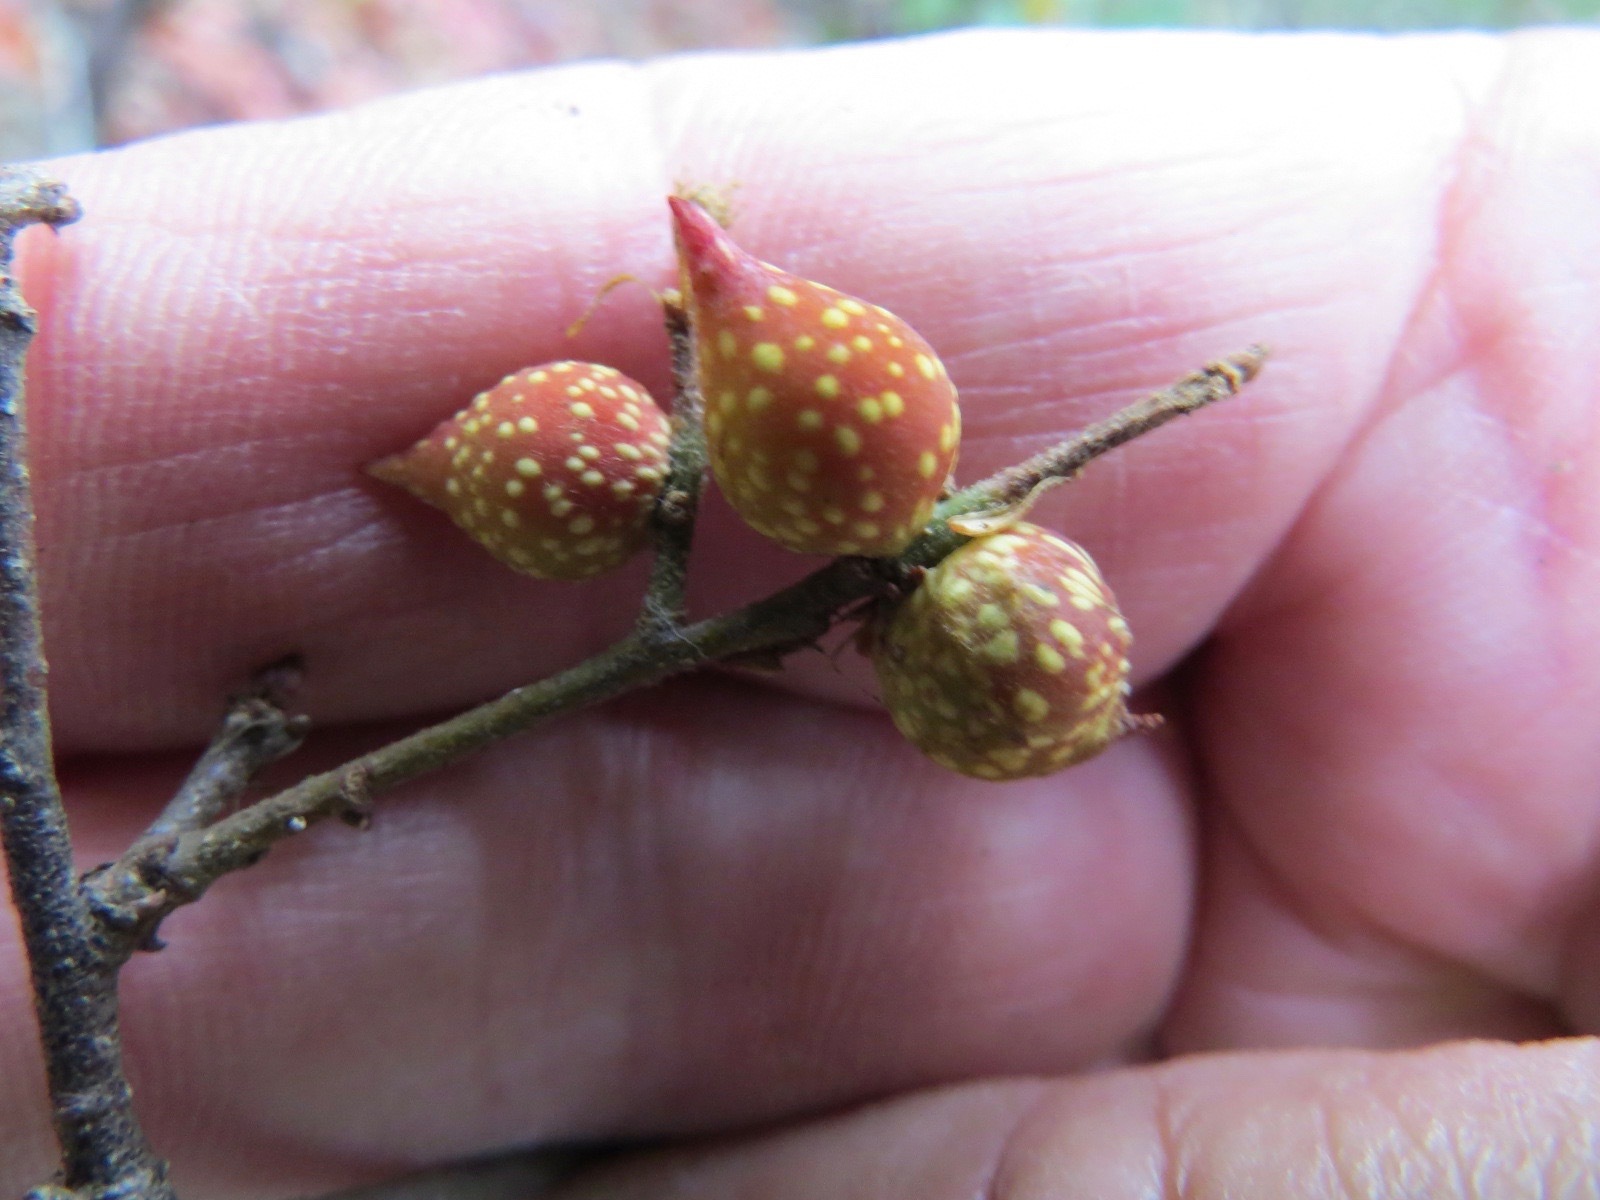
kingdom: Animalia
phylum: Arthropoda
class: Insecta
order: Hymenoptera
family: Cynipidae
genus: Burnettweldia
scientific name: Burnettweldia
